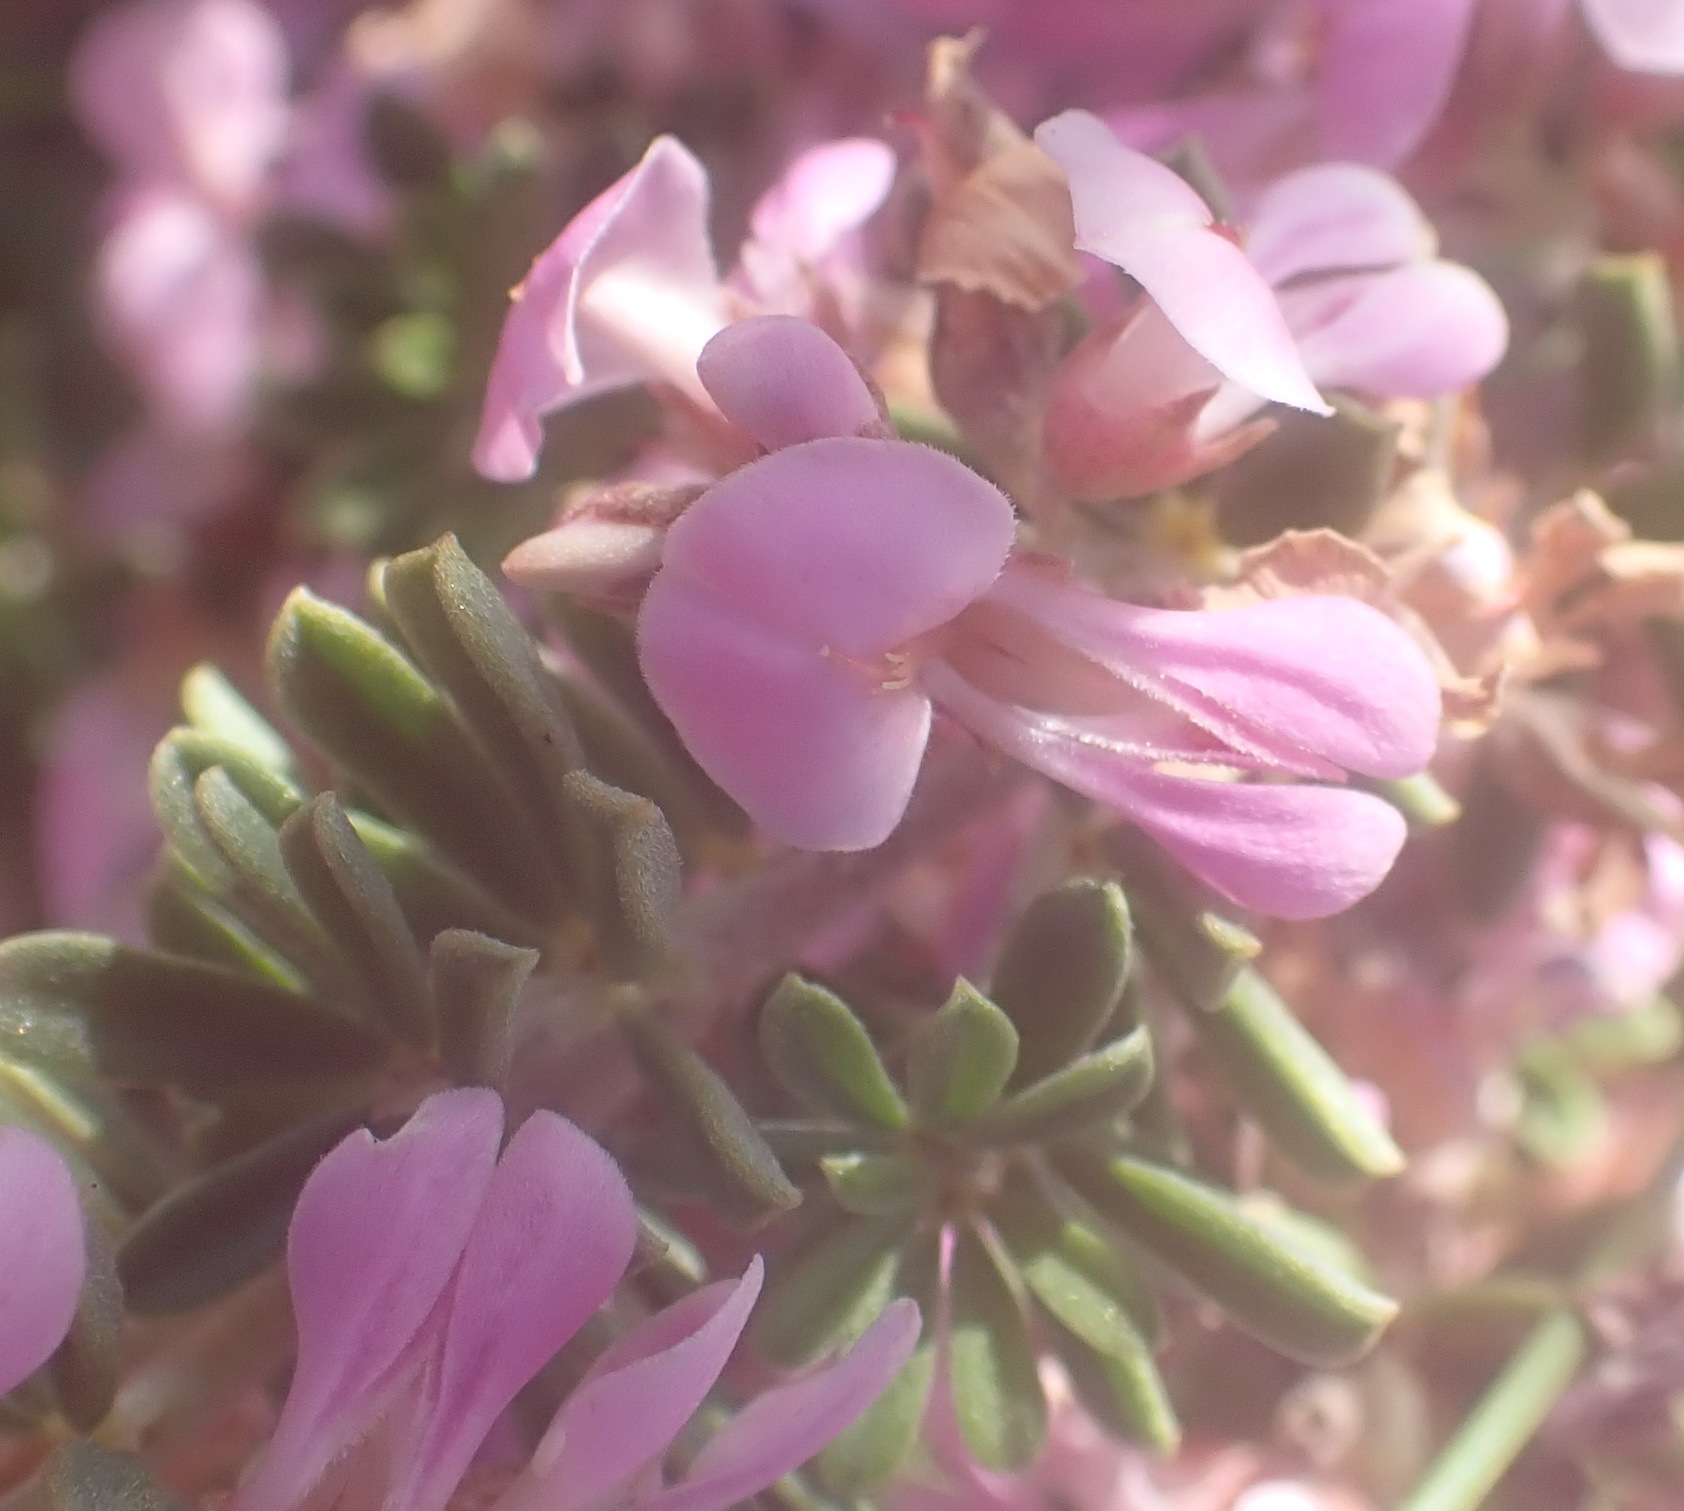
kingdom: Plantae
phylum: Tracheophyta
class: Magnoliopsida
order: Fabales
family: Fabaceae
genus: Indigofera
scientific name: Indigofera flabellata
